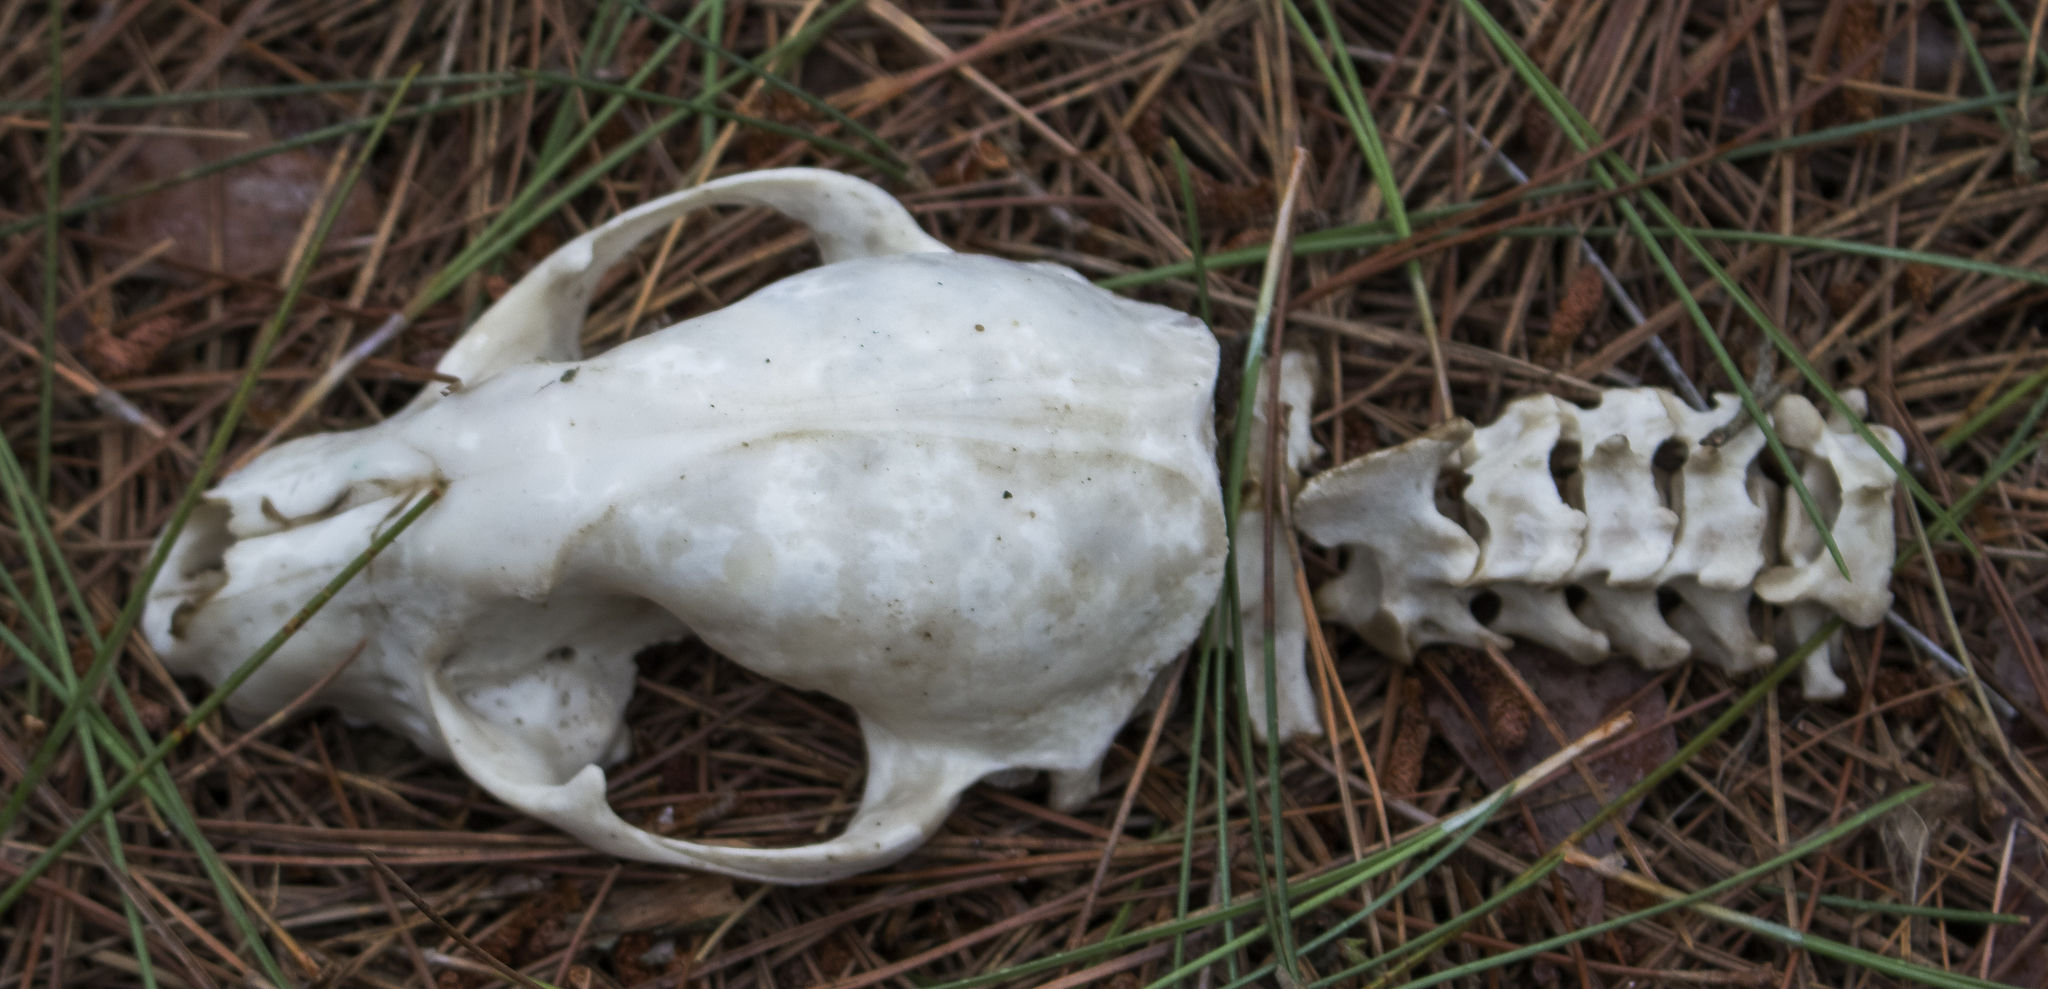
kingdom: Animalia
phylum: Chordata
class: Mammalia
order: Carnivora
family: Procyonidae
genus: Procyon
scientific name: Procyon lotor
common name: Raccoon
